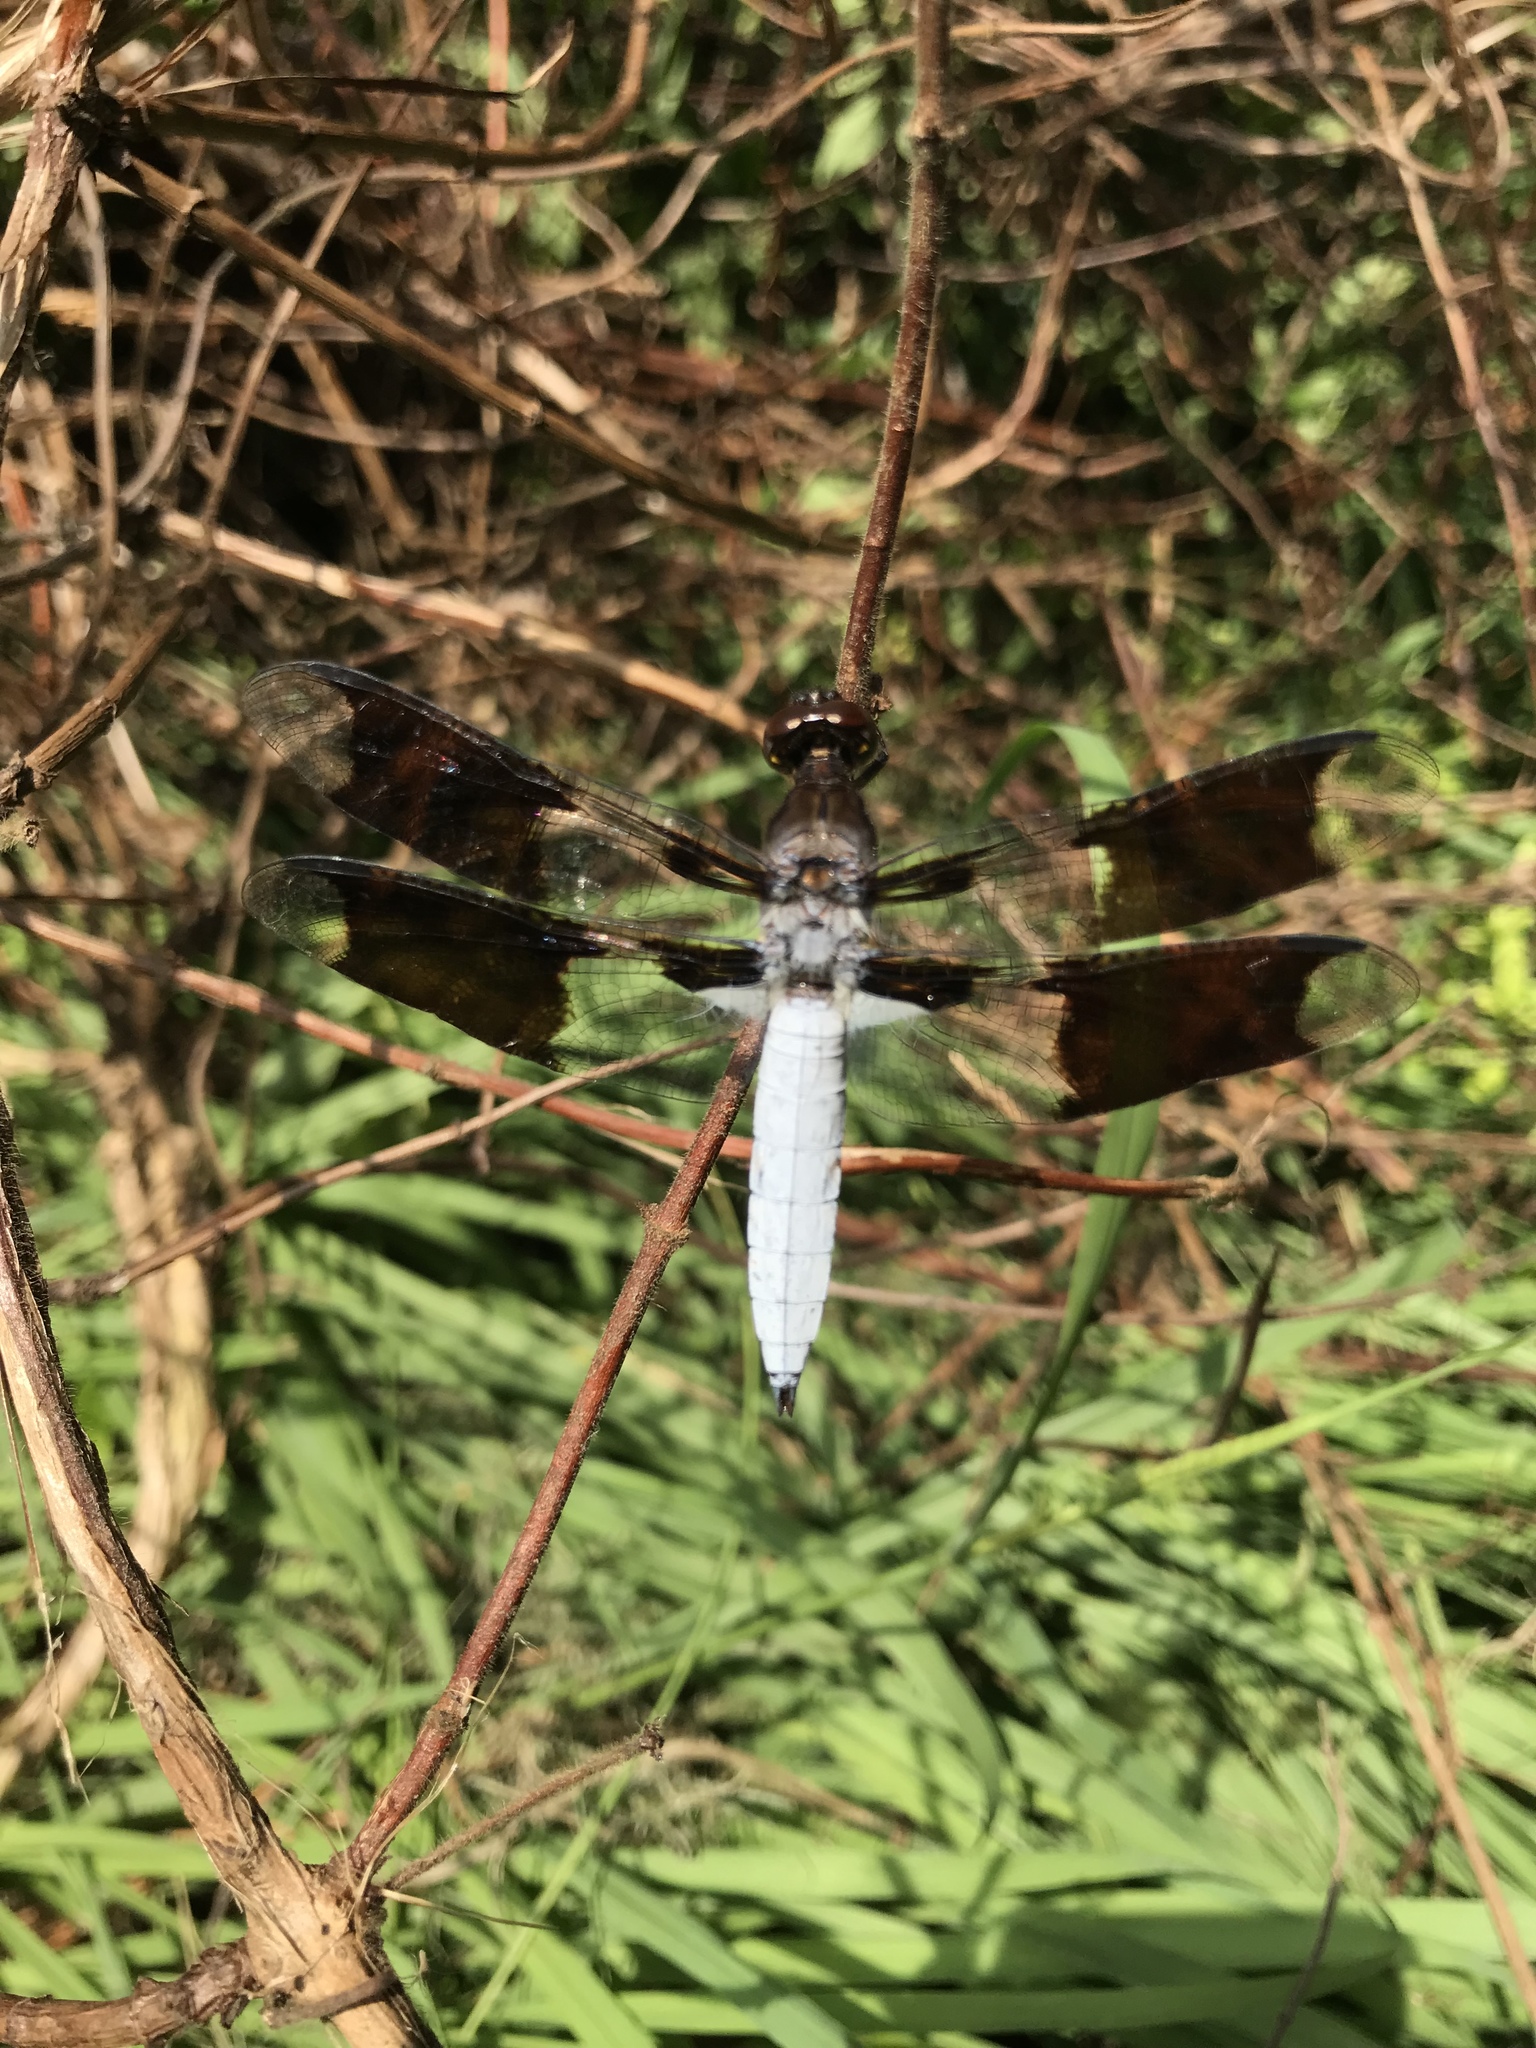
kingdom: Animalia
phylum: Arthropoda
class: Insecta
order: Odonata
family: Libellulidae
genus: Plathemis
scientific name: Plathemis lydia
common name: Common whitetail
